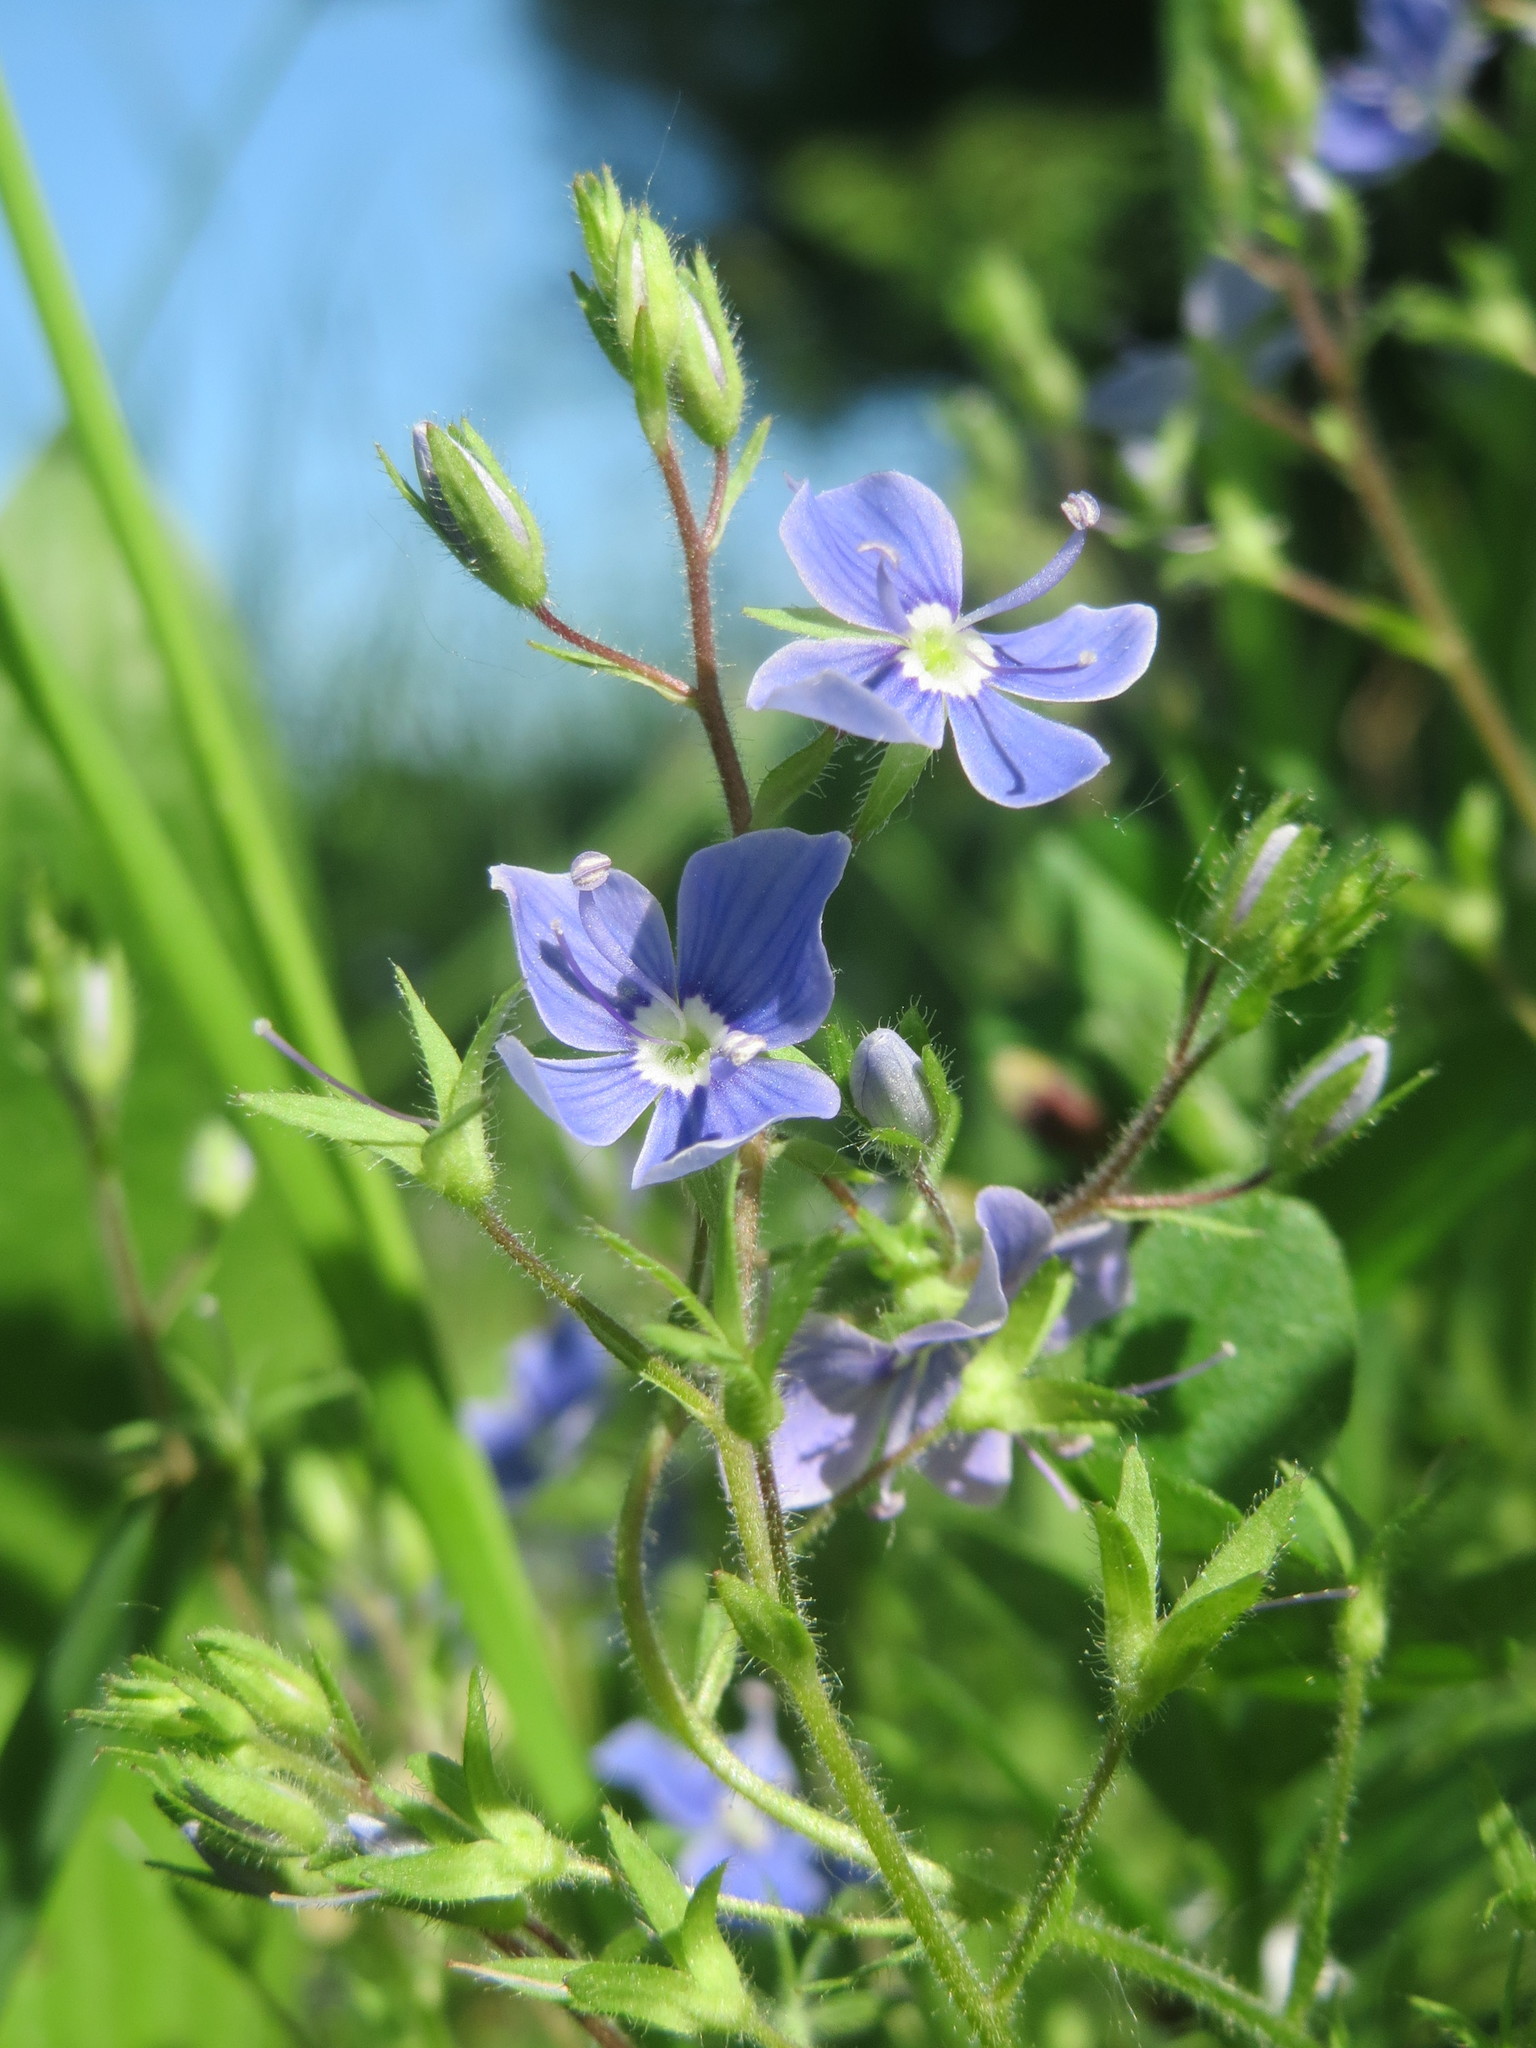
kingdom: Plantae
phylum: Tracheophyta
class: Magnoliopsida
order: Lamiales
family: Plantaginaceae
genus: Veronica
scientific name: Veronica chamaedrys
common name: Germander speedwell
